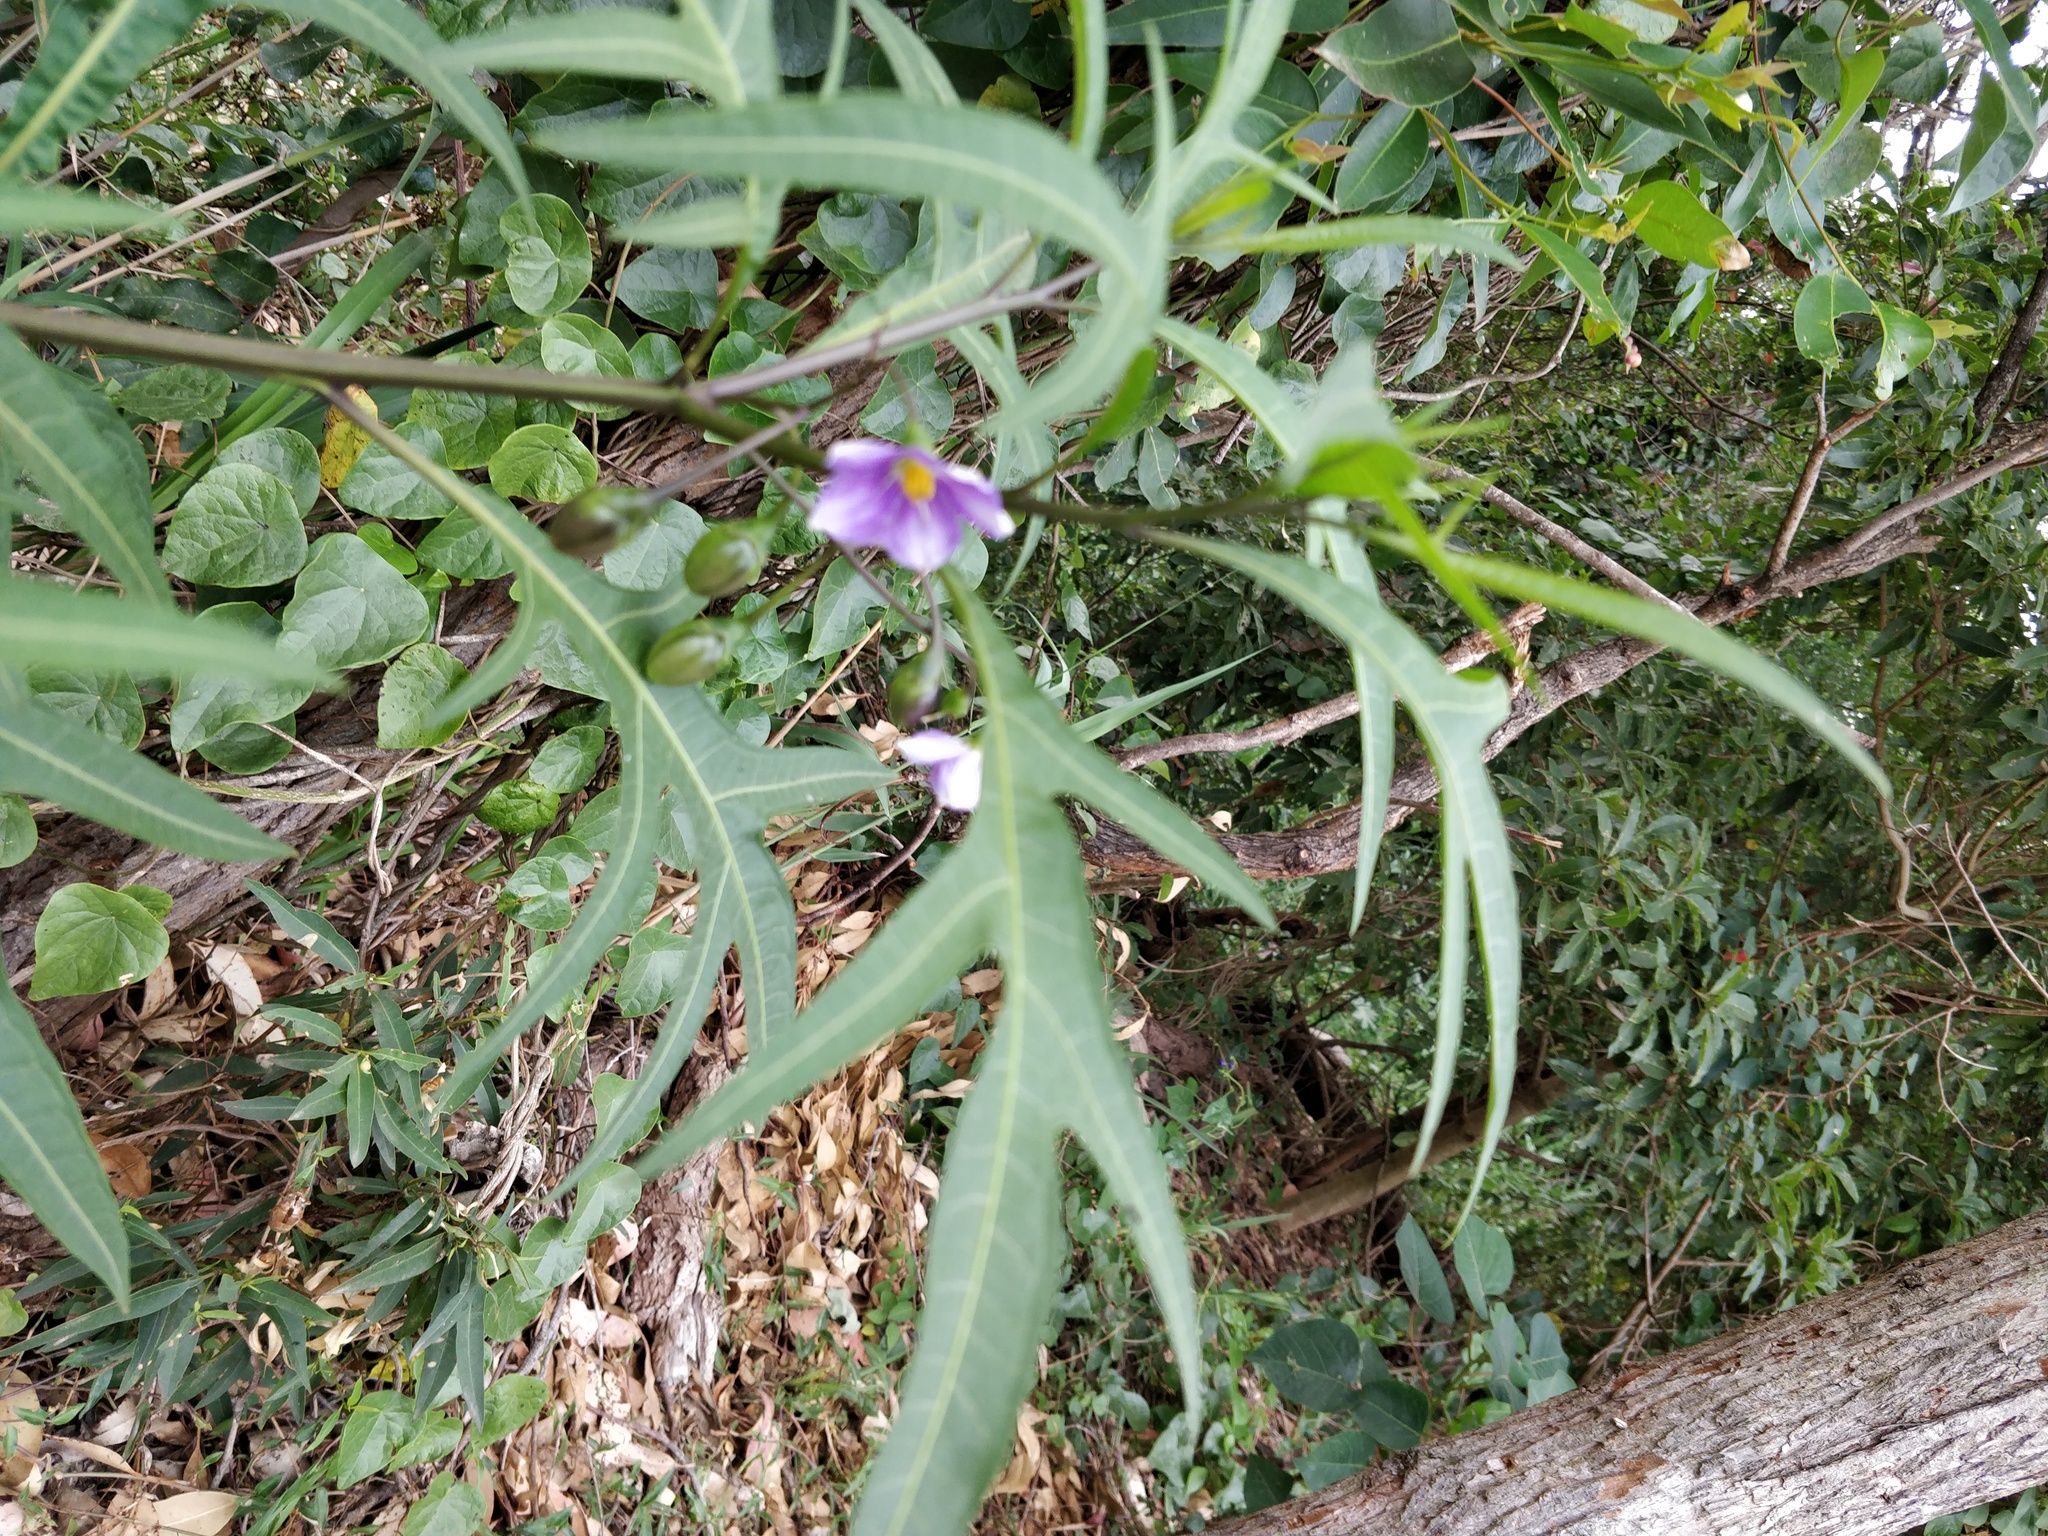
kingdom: Plantae
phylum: Tracheophyta
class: Magnoliopsida
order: Solanales
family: Solanaceae
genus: Solanum
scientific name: Solanum aviculare
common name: New zealand nightshade
